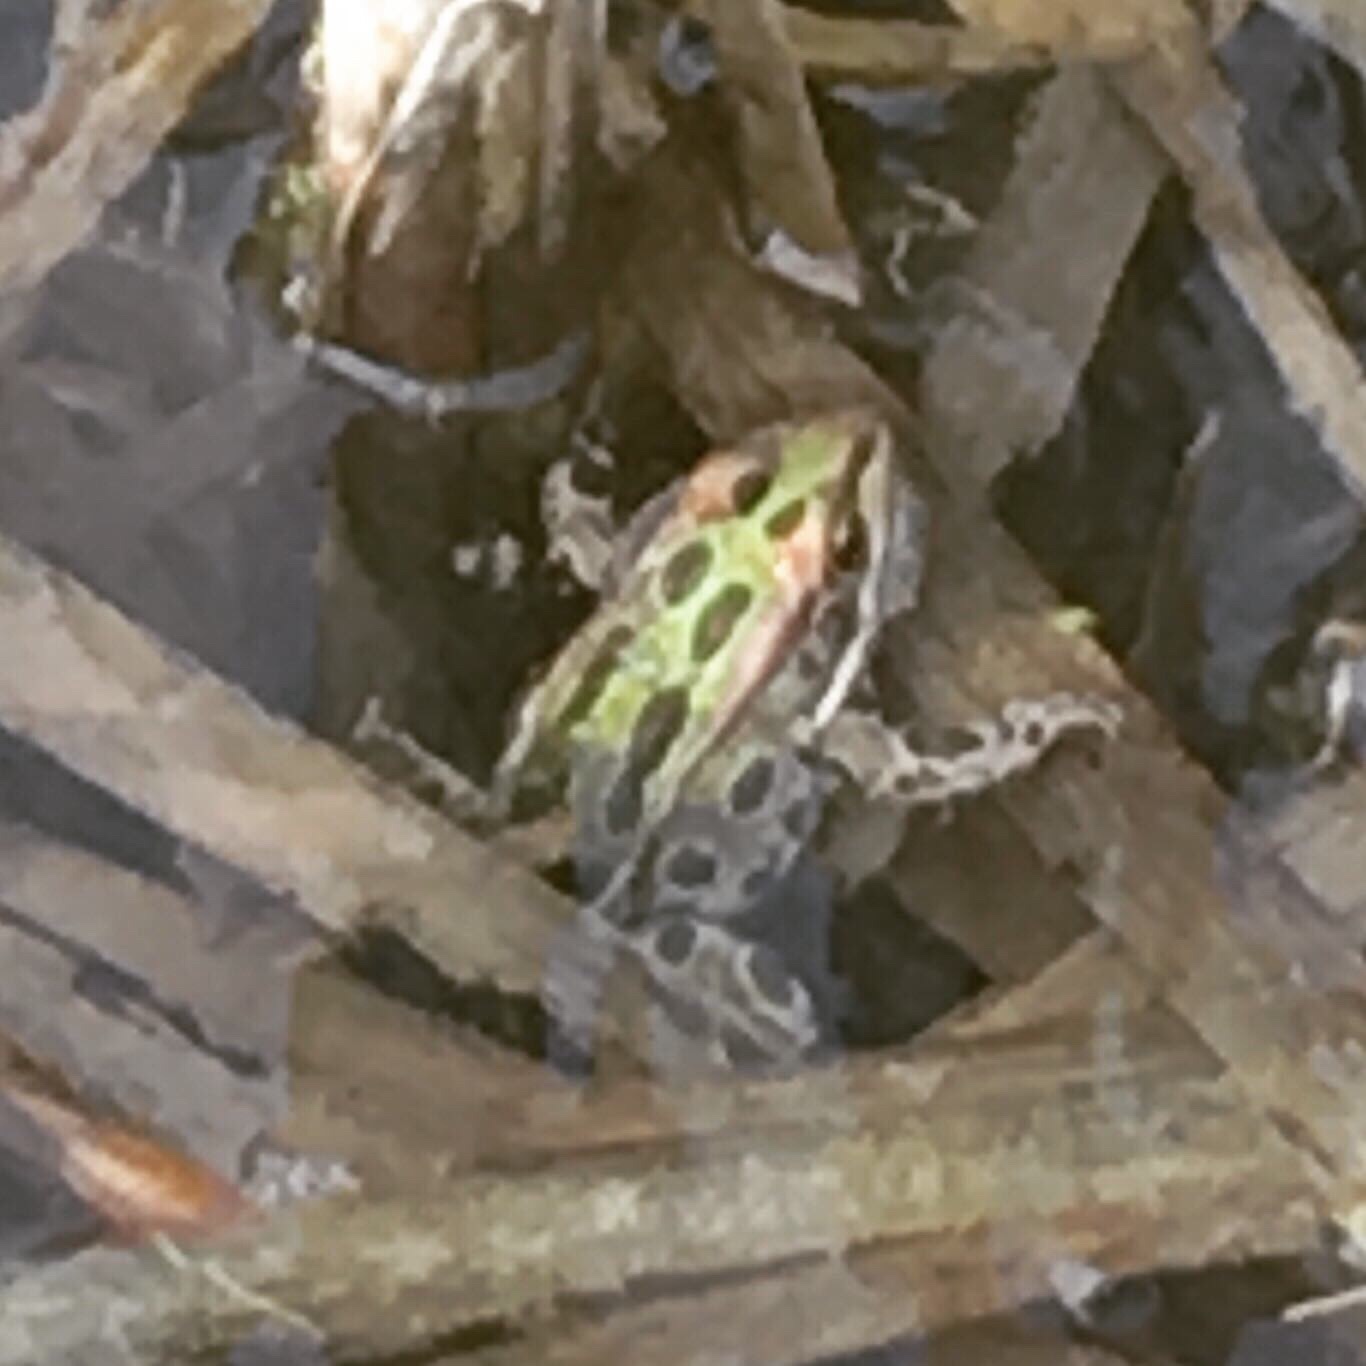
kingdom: Animalia
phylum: Chordata
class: Amphibia
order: Anura
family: Ranidae
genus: Lithobates
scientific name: Lithobates pipiens
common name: Northern leopard frog
